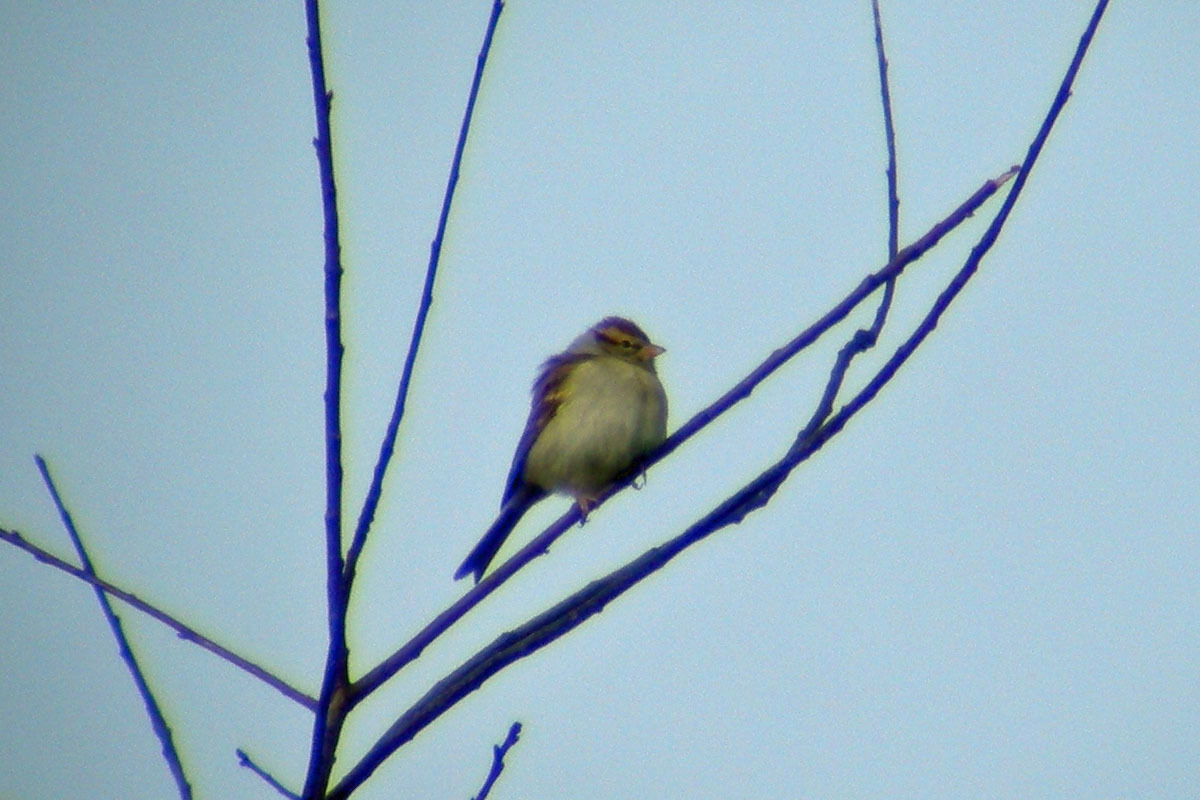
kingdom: Animalia
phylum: Chordata
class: Aves
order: Passeriformes
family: Passerellidae
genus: Spizella
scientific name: Spizella passerina
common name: Chipping sparrow
